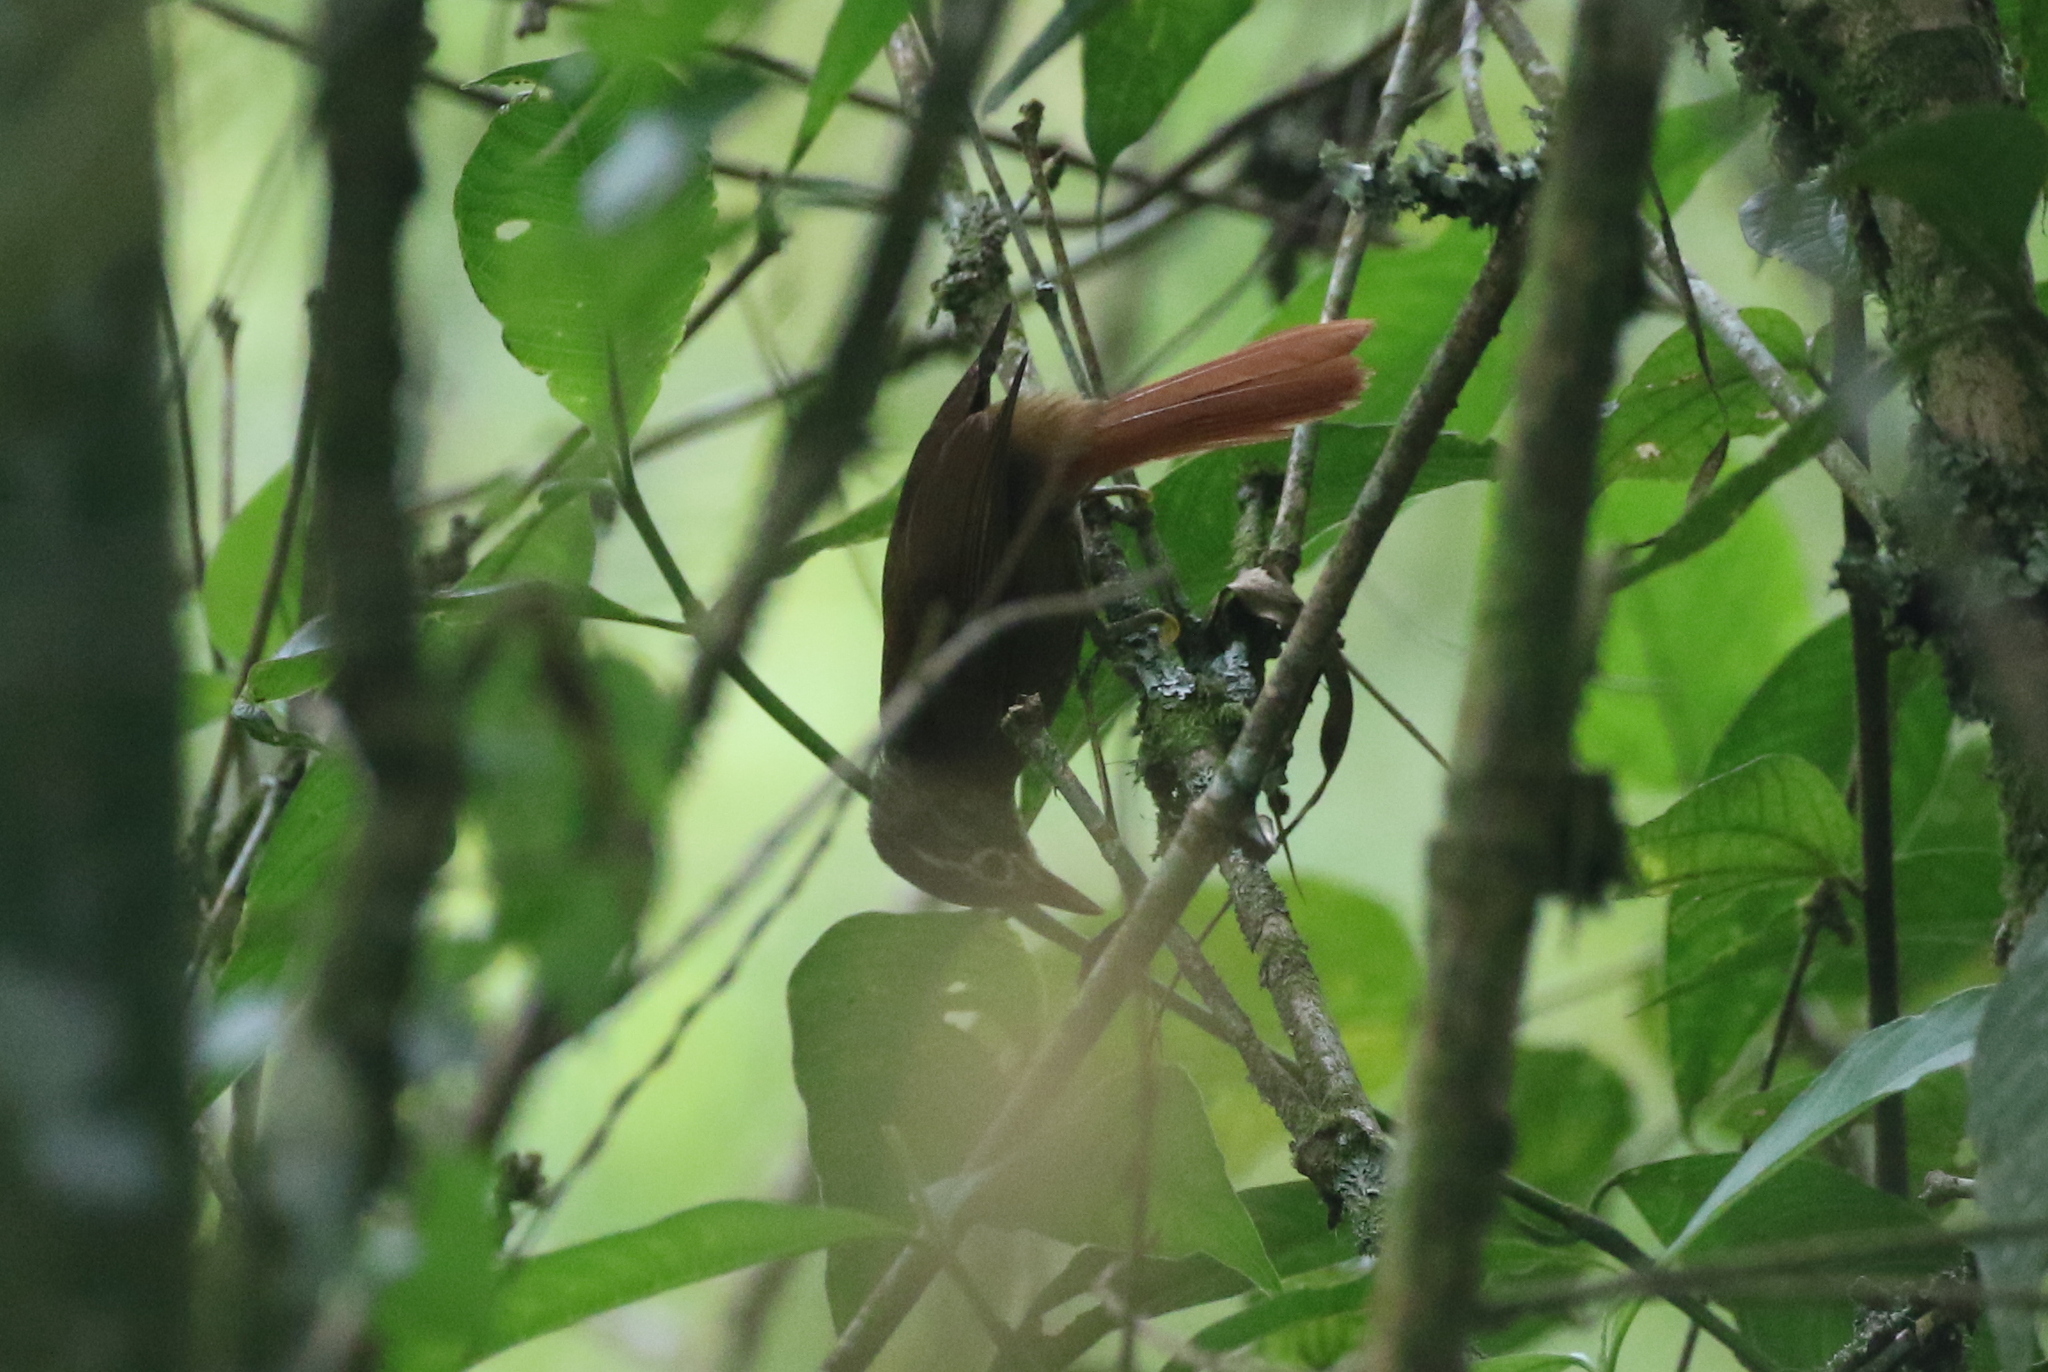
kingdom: Animalia
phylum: Chordata
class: Aves
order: Passeriformes
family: Furnariidae
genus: Anabacerthia
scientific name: Anabacerthia striaticollis
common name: Montane foliage-gleaner
